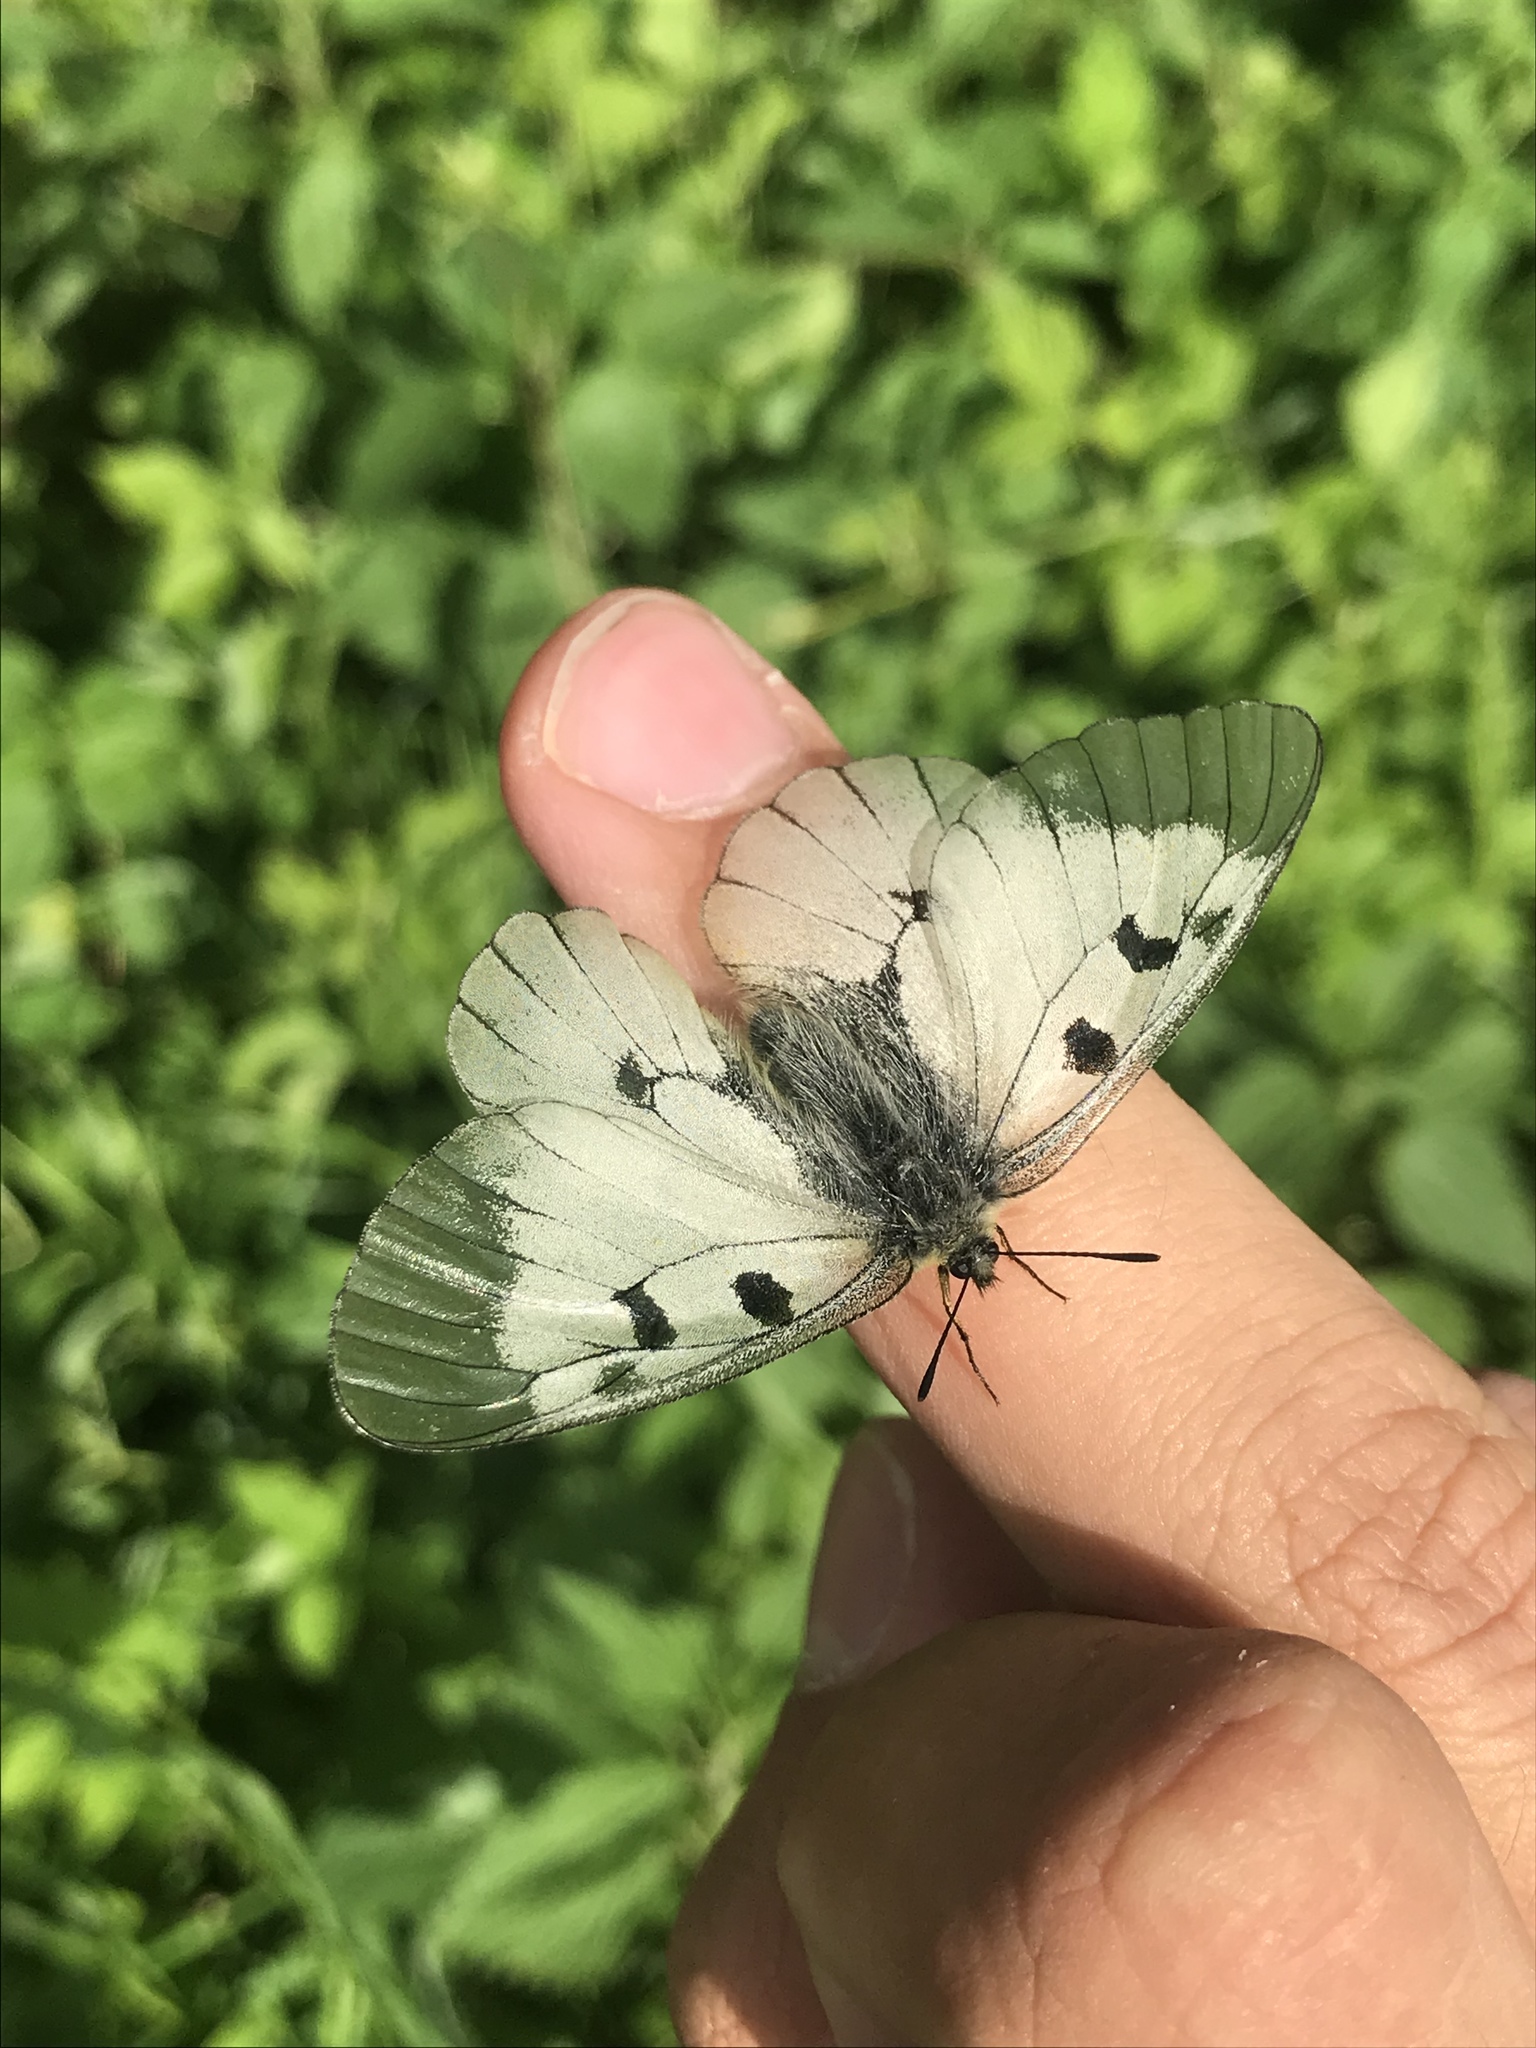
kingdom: Animalia
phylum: Arthropoda
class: Insecta
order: Lepidoptera
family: Papilionidae
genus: Parnassius
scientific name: Parnassius mnemosyne
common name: Clouded apollo
